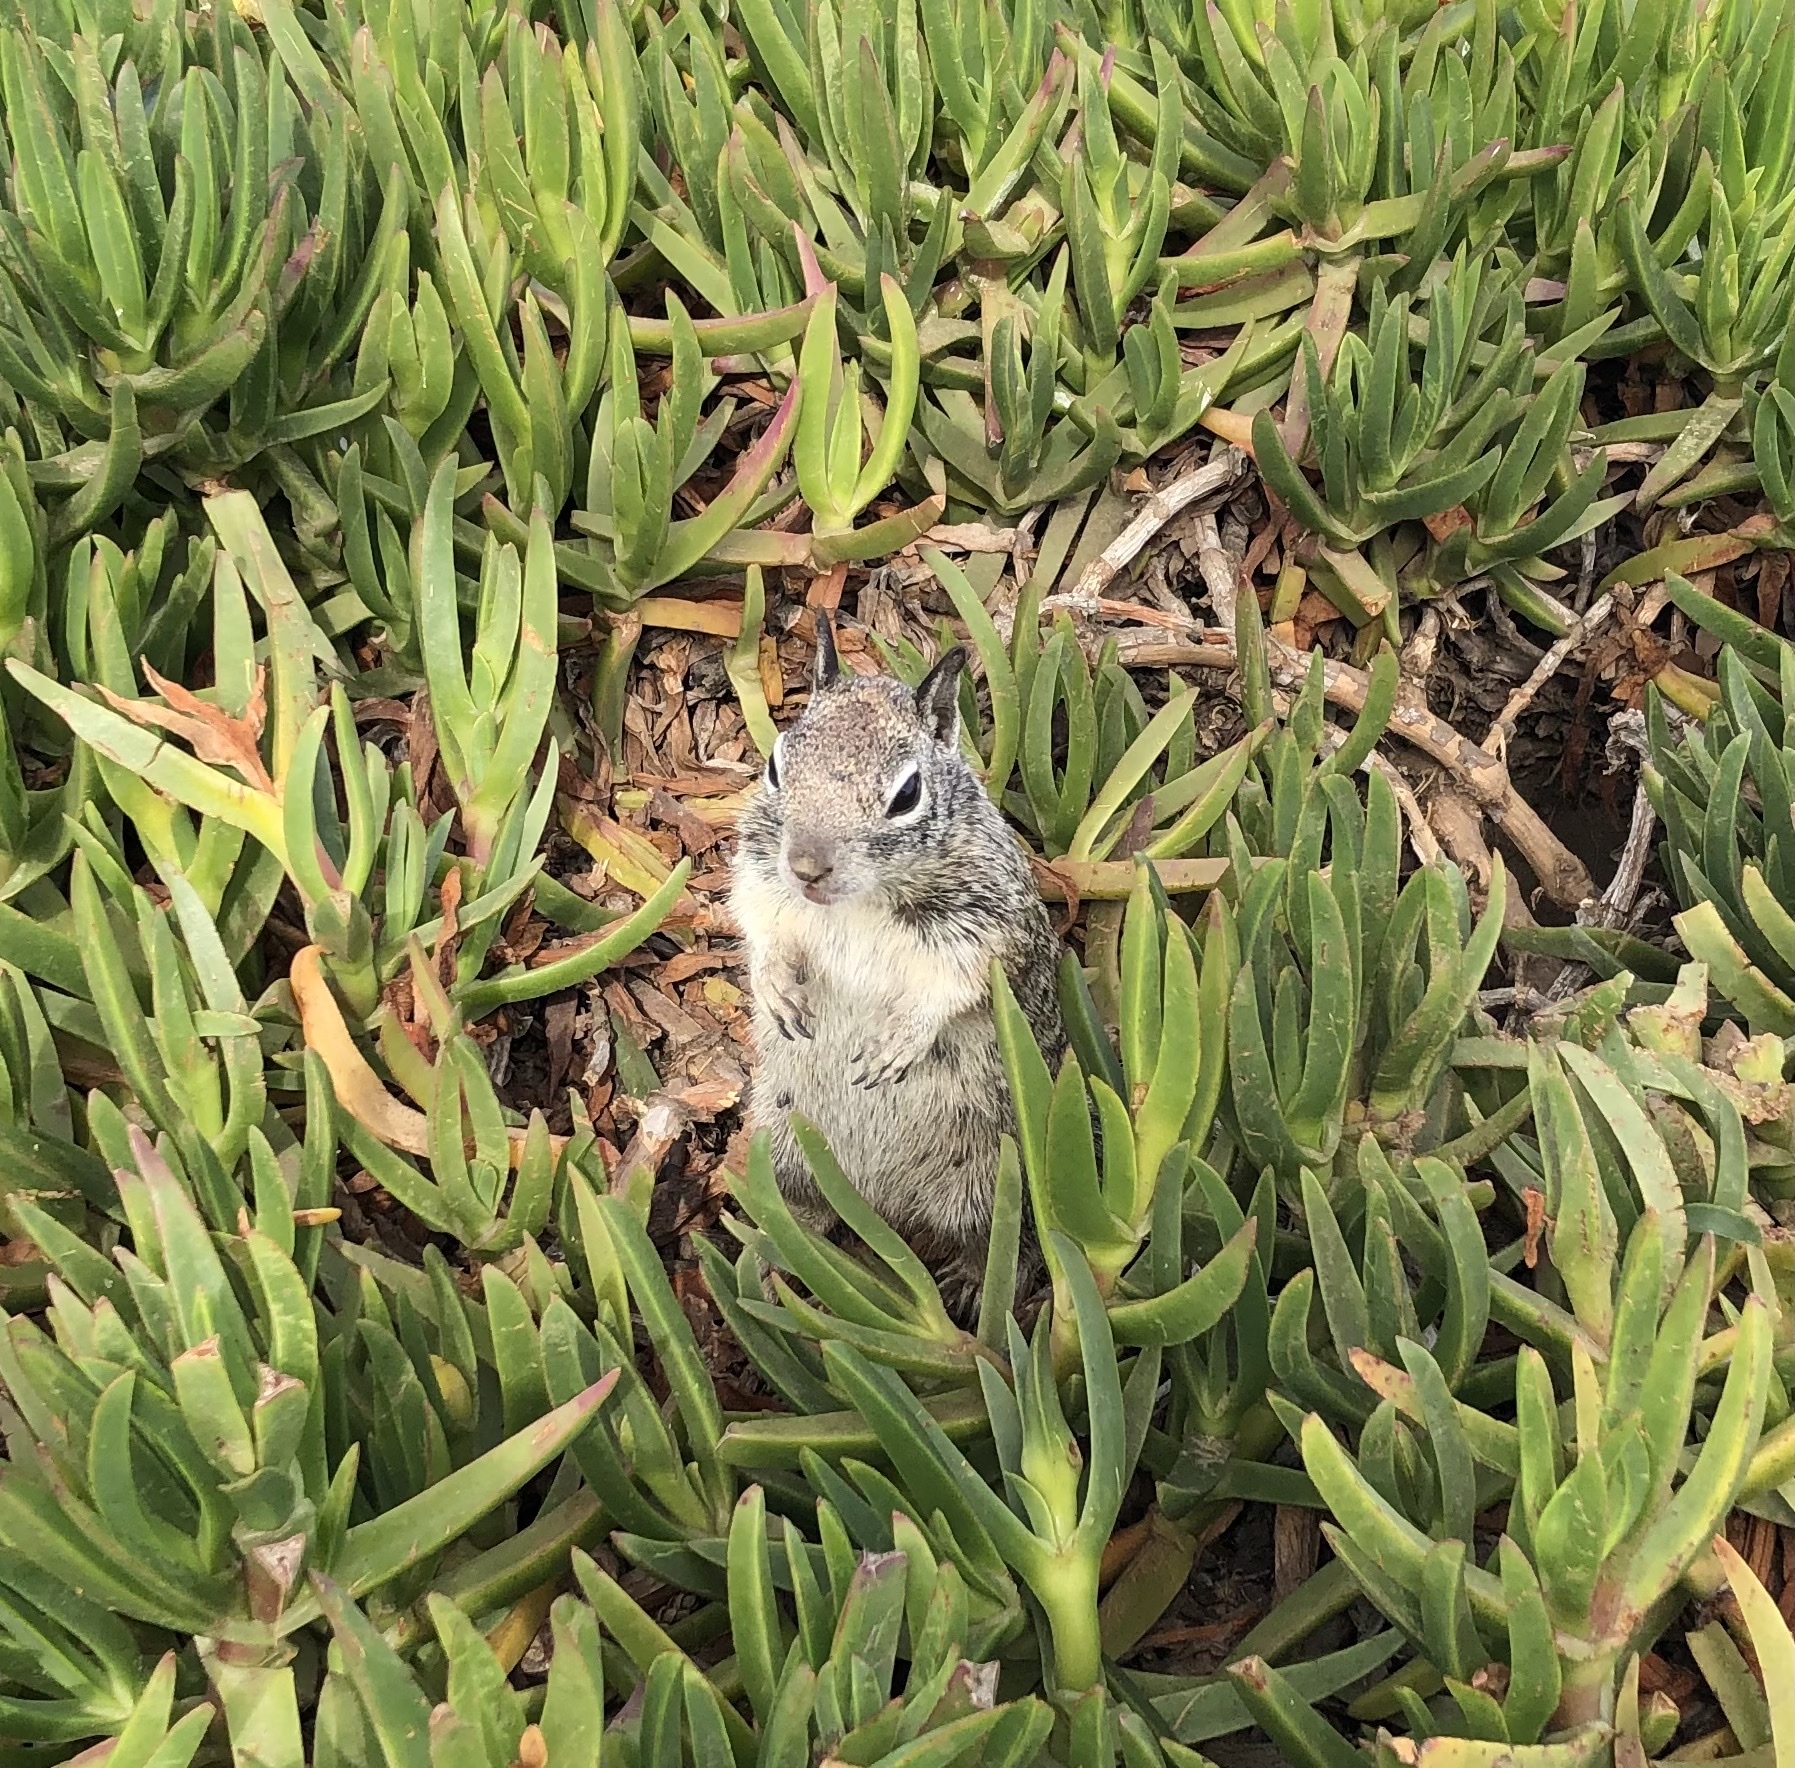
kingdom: Animalia
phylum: Chordata
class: Mammalia
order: Rodentia
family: Sciuridae
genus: Otospermophilus
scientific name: Otospermophilus beecheyi
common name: California ground squirrel
